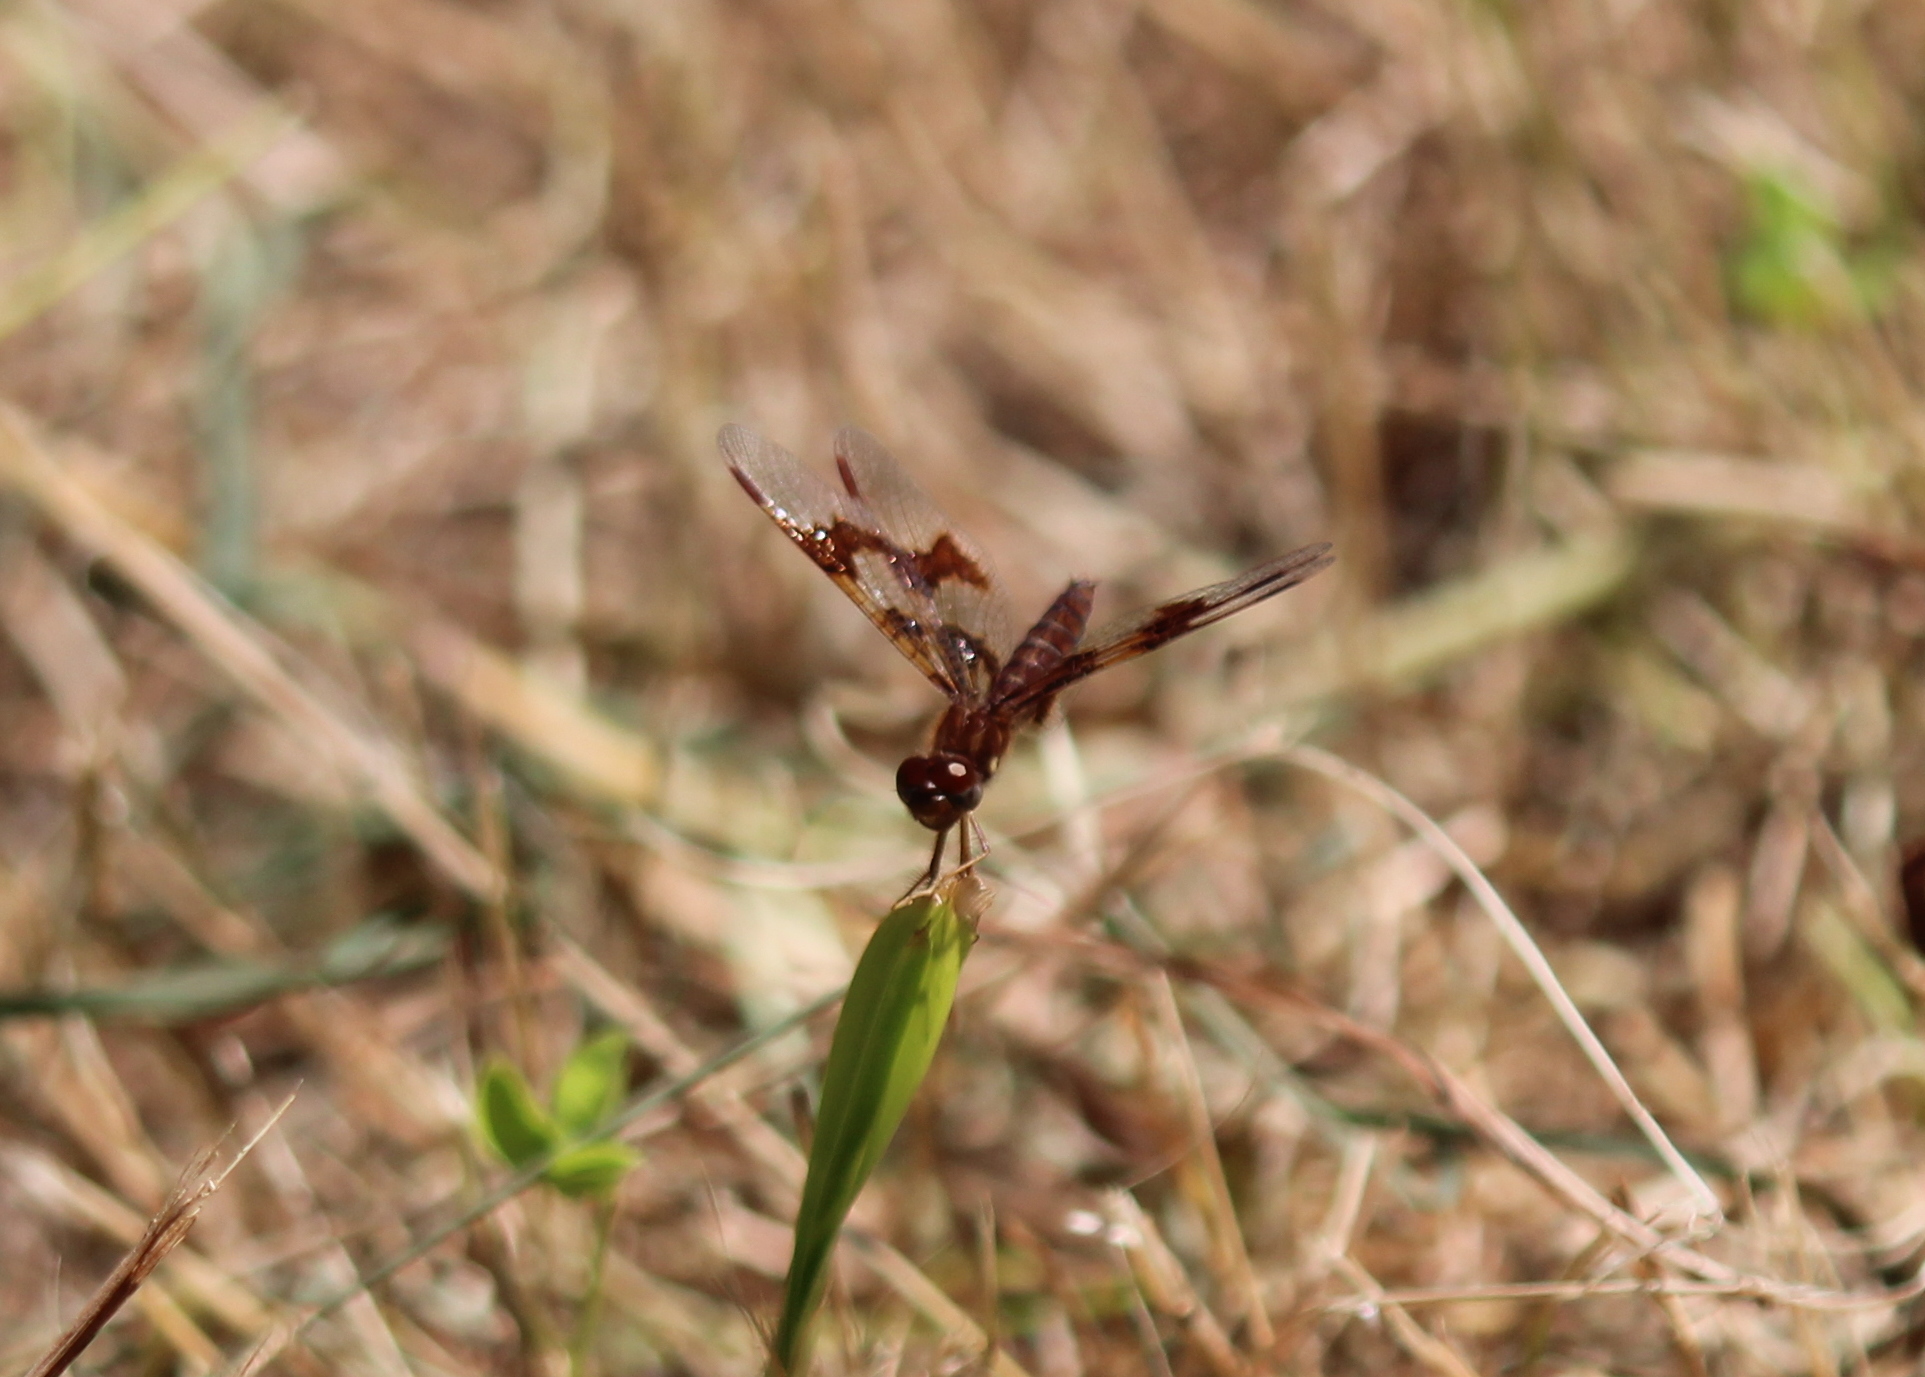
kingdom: Animalia
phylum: Arthropoda
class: Insecta
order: Odonata
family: Libellulidae
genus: Perithemis
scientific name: Perithemis tenera
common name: Eastern amberwing
